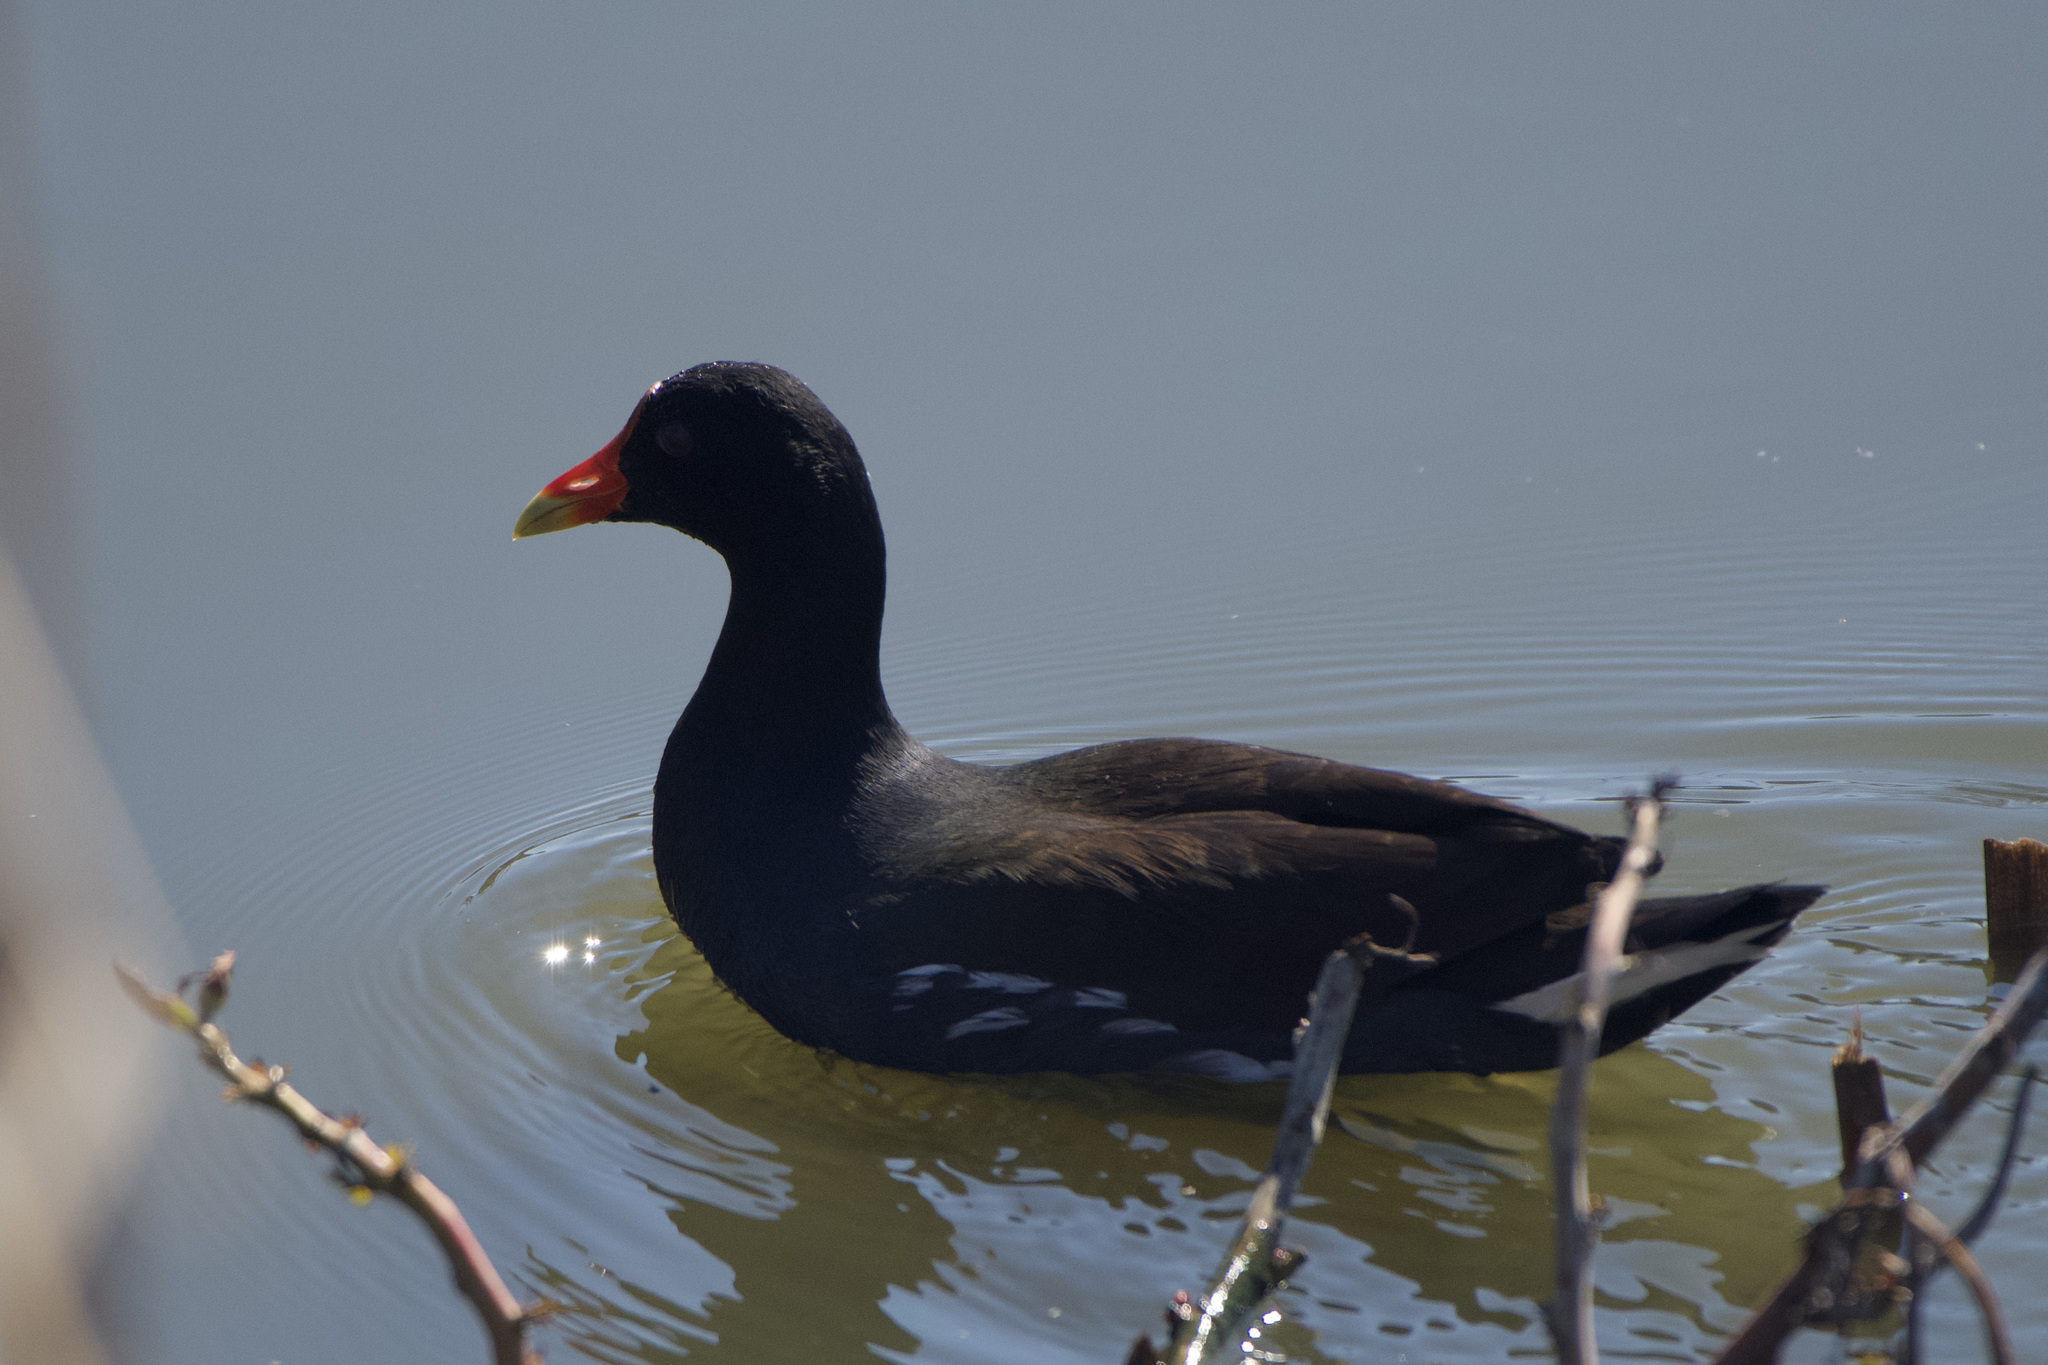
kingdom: Animalia
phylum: Chordata
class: Aves
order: Gruiformes
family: Rallidae
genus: Gallinula
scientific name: Gallinula chloropus
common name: Common moorhen
